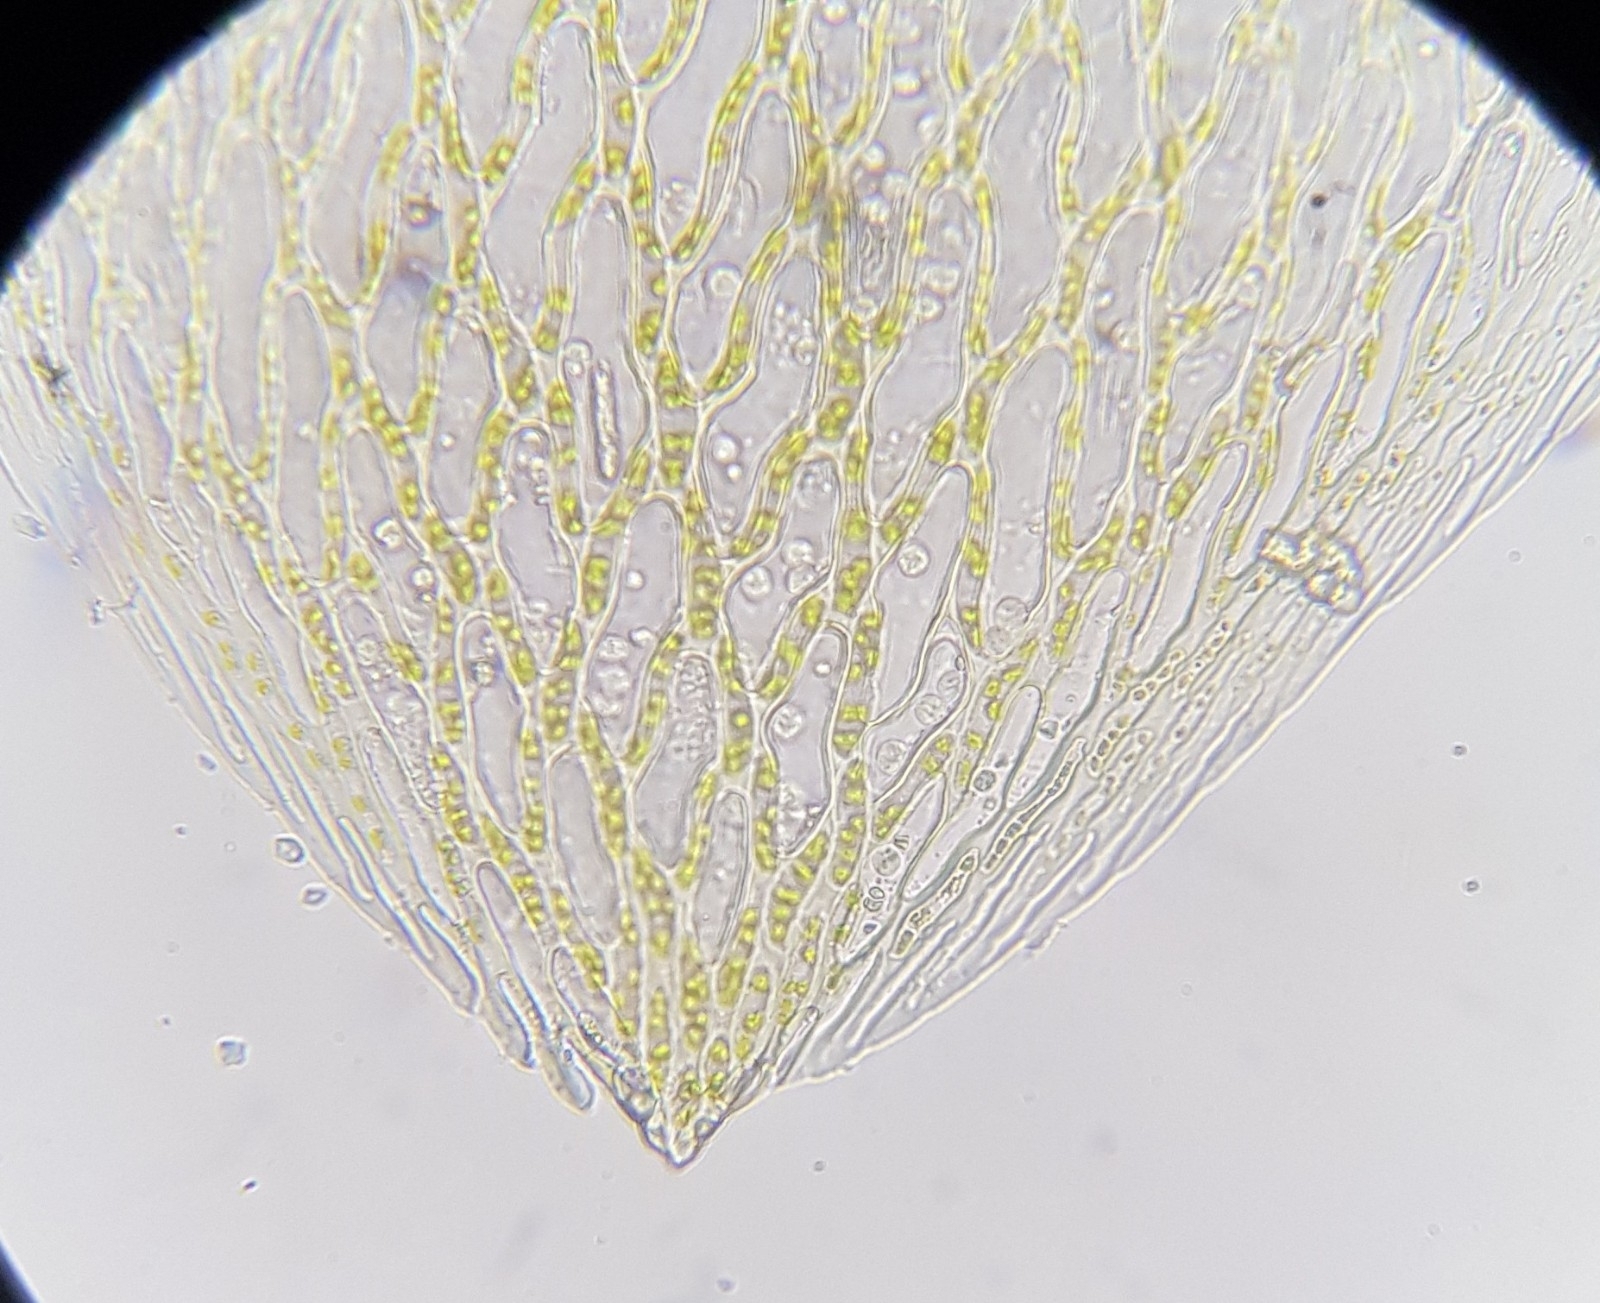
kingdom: Plantae
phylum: Bryophyta
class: Sphagnopsida
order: Sphagnales
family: Sphagnaceae
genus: Sphagnum
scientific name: Sphagnum fallax
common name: Flat-top peat moss
